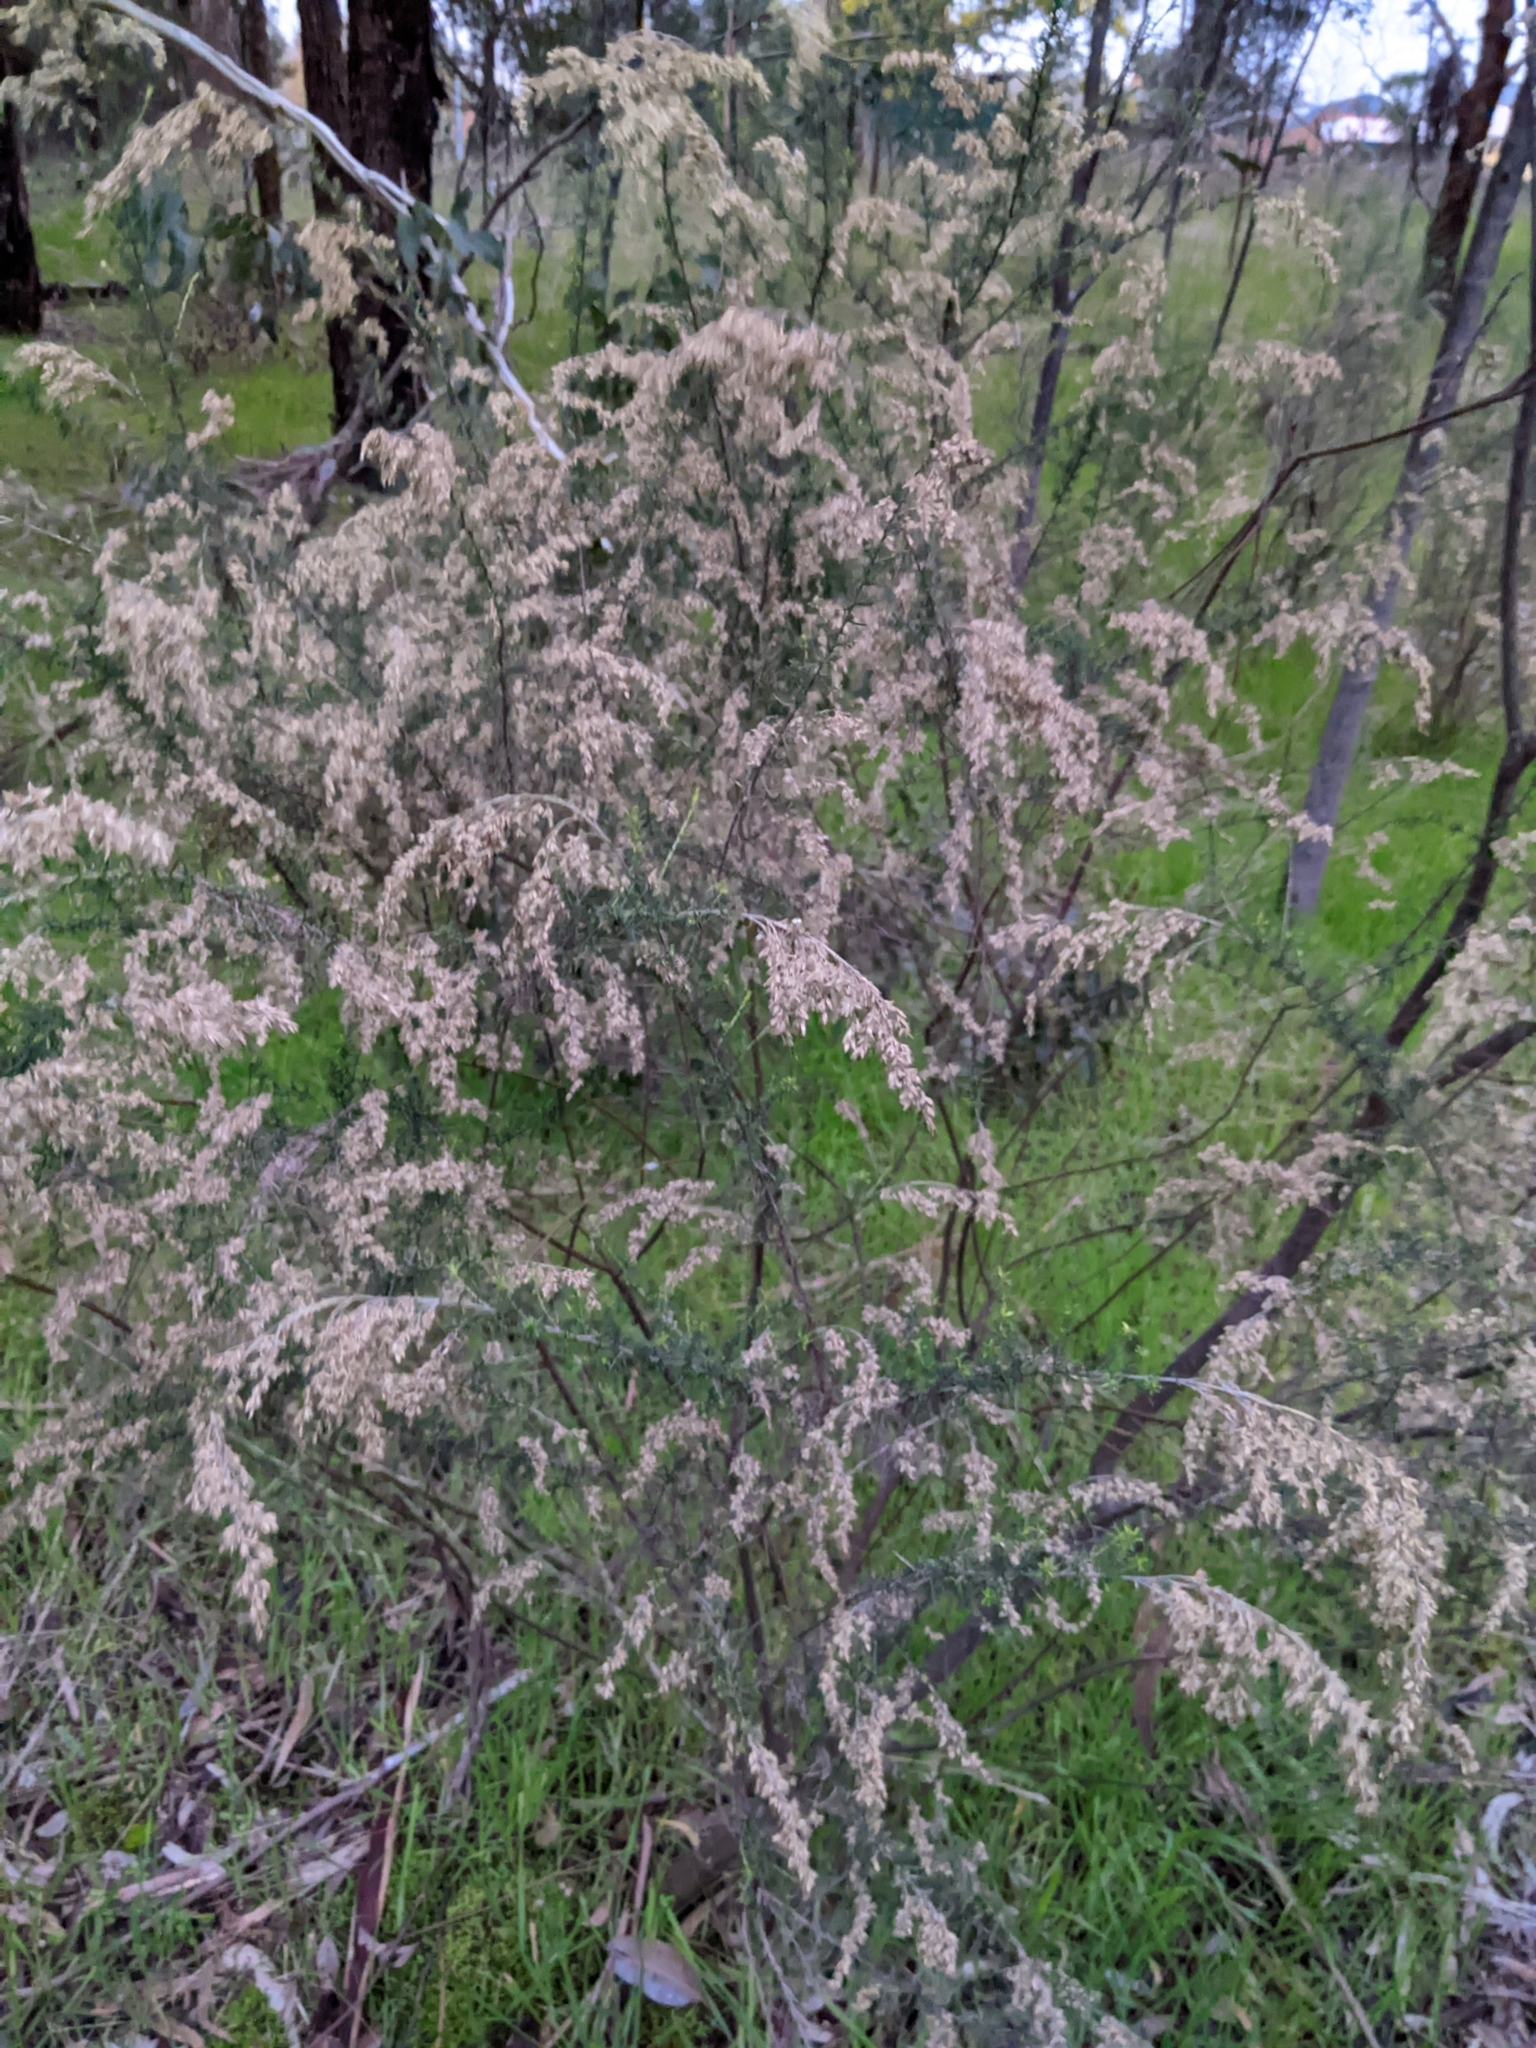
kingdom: Plantae
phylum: Tracheophyta
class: Magnoliopsida
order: Asterales
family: Asteraceae
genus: Cassinia
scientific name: Cassinia sifton
